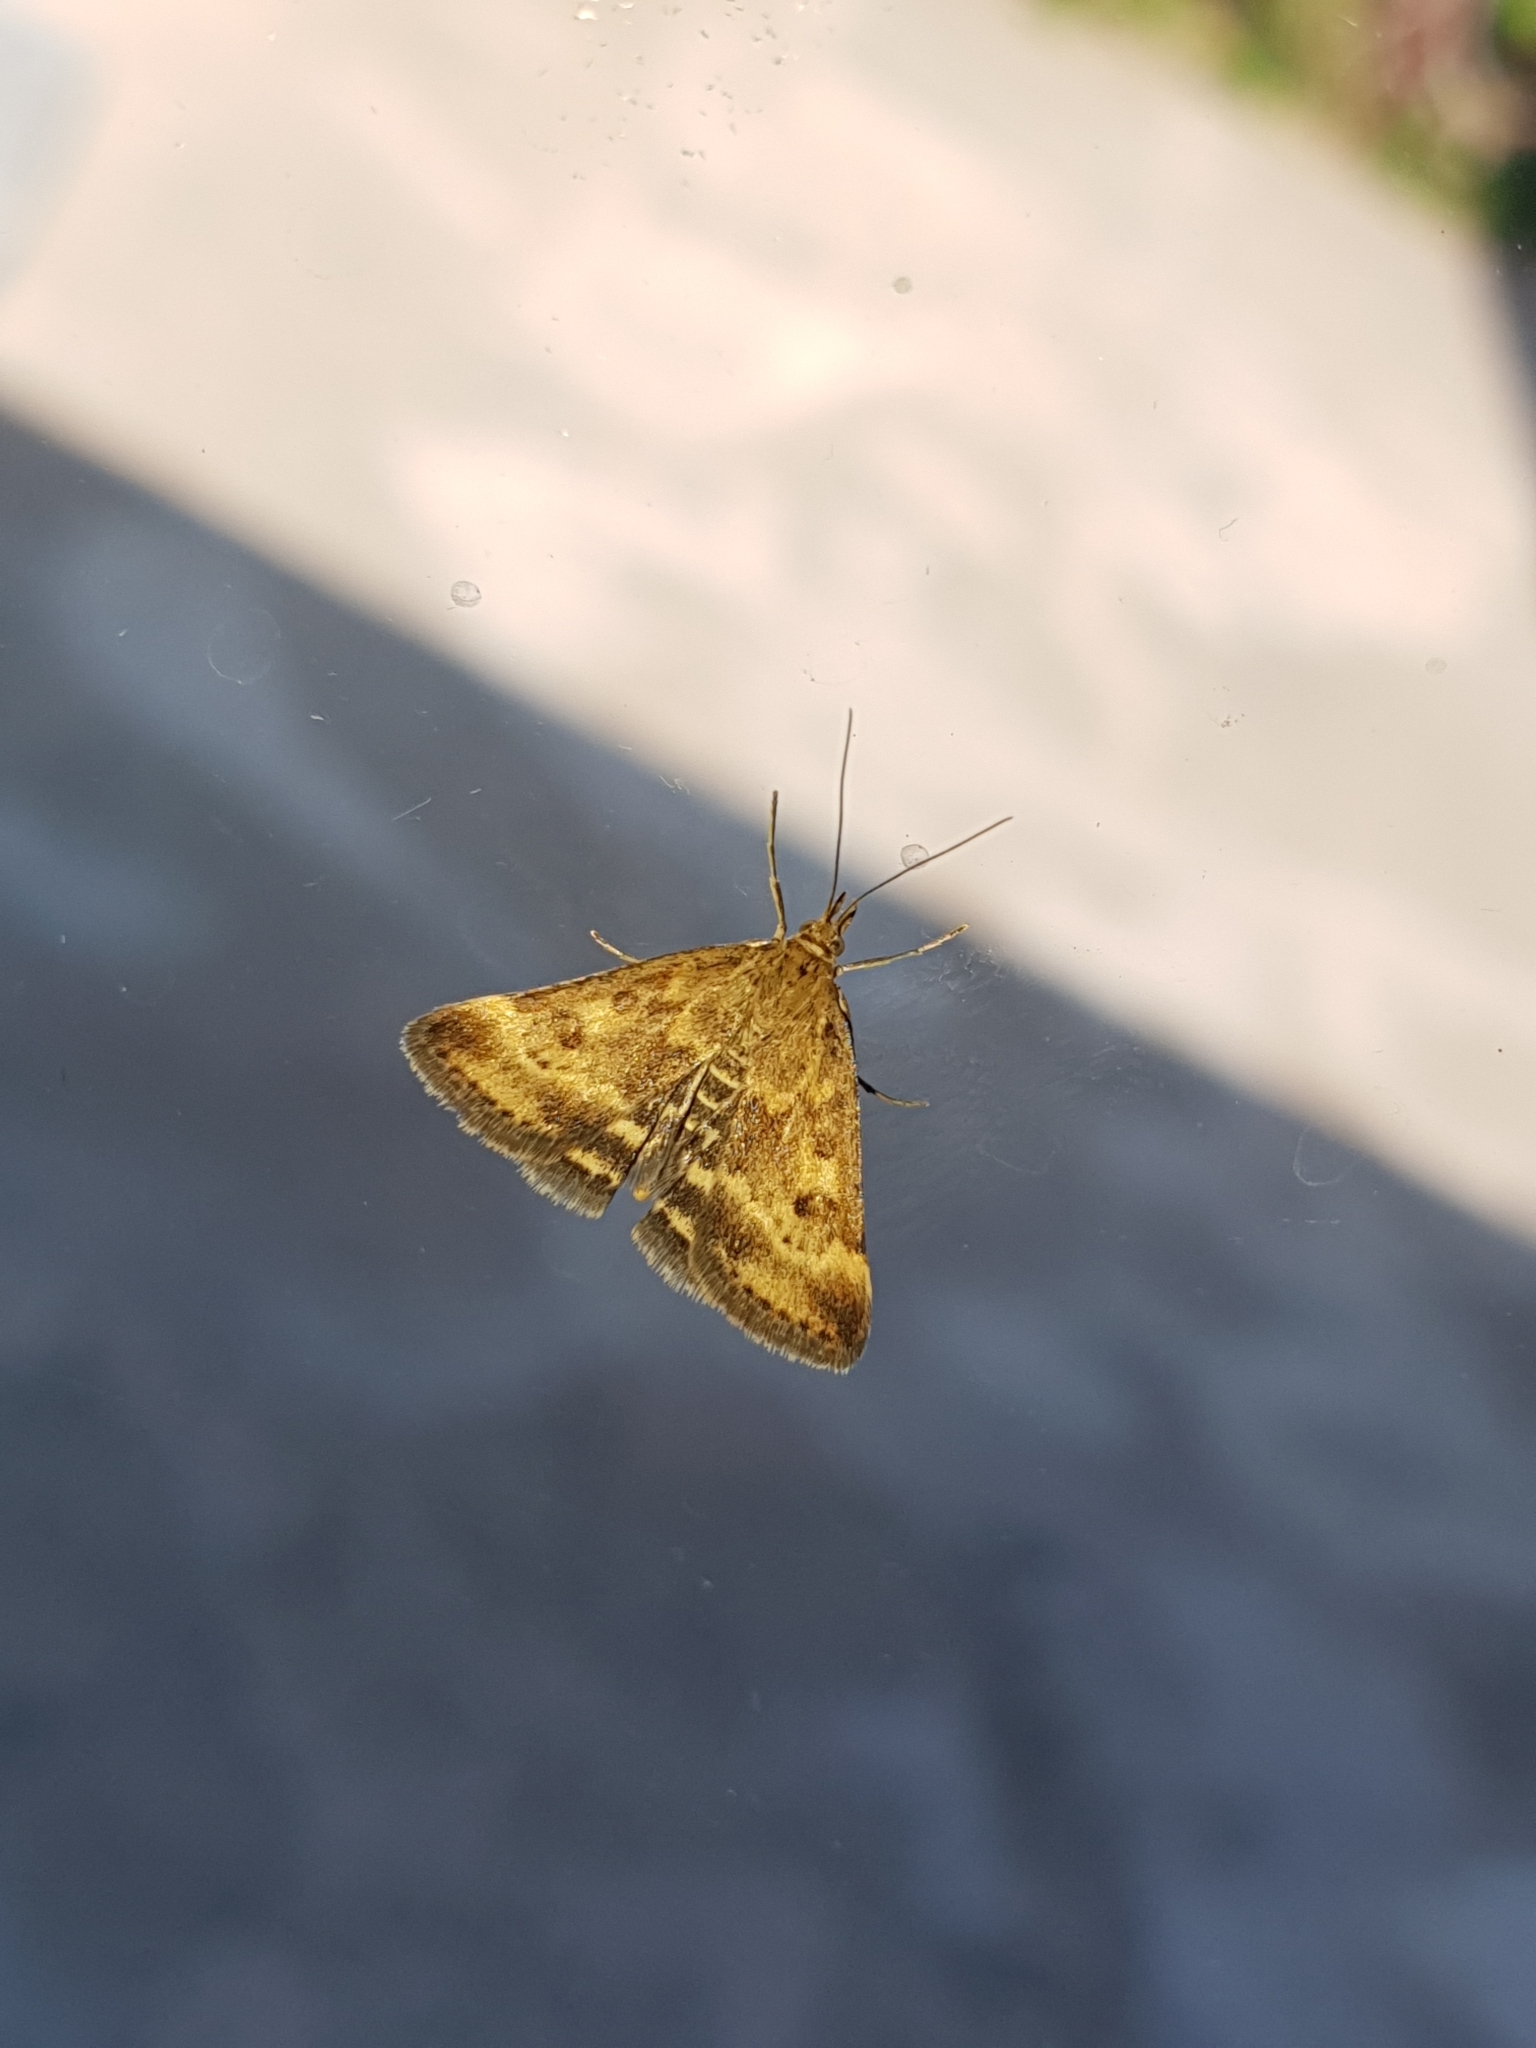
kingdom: Animalia
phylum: Arthropoda
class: Insecta
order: Lepidoptera
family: Crambidae
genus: Pyrausta
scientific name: Pyrausta despicata
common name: Straw-barred pearl
